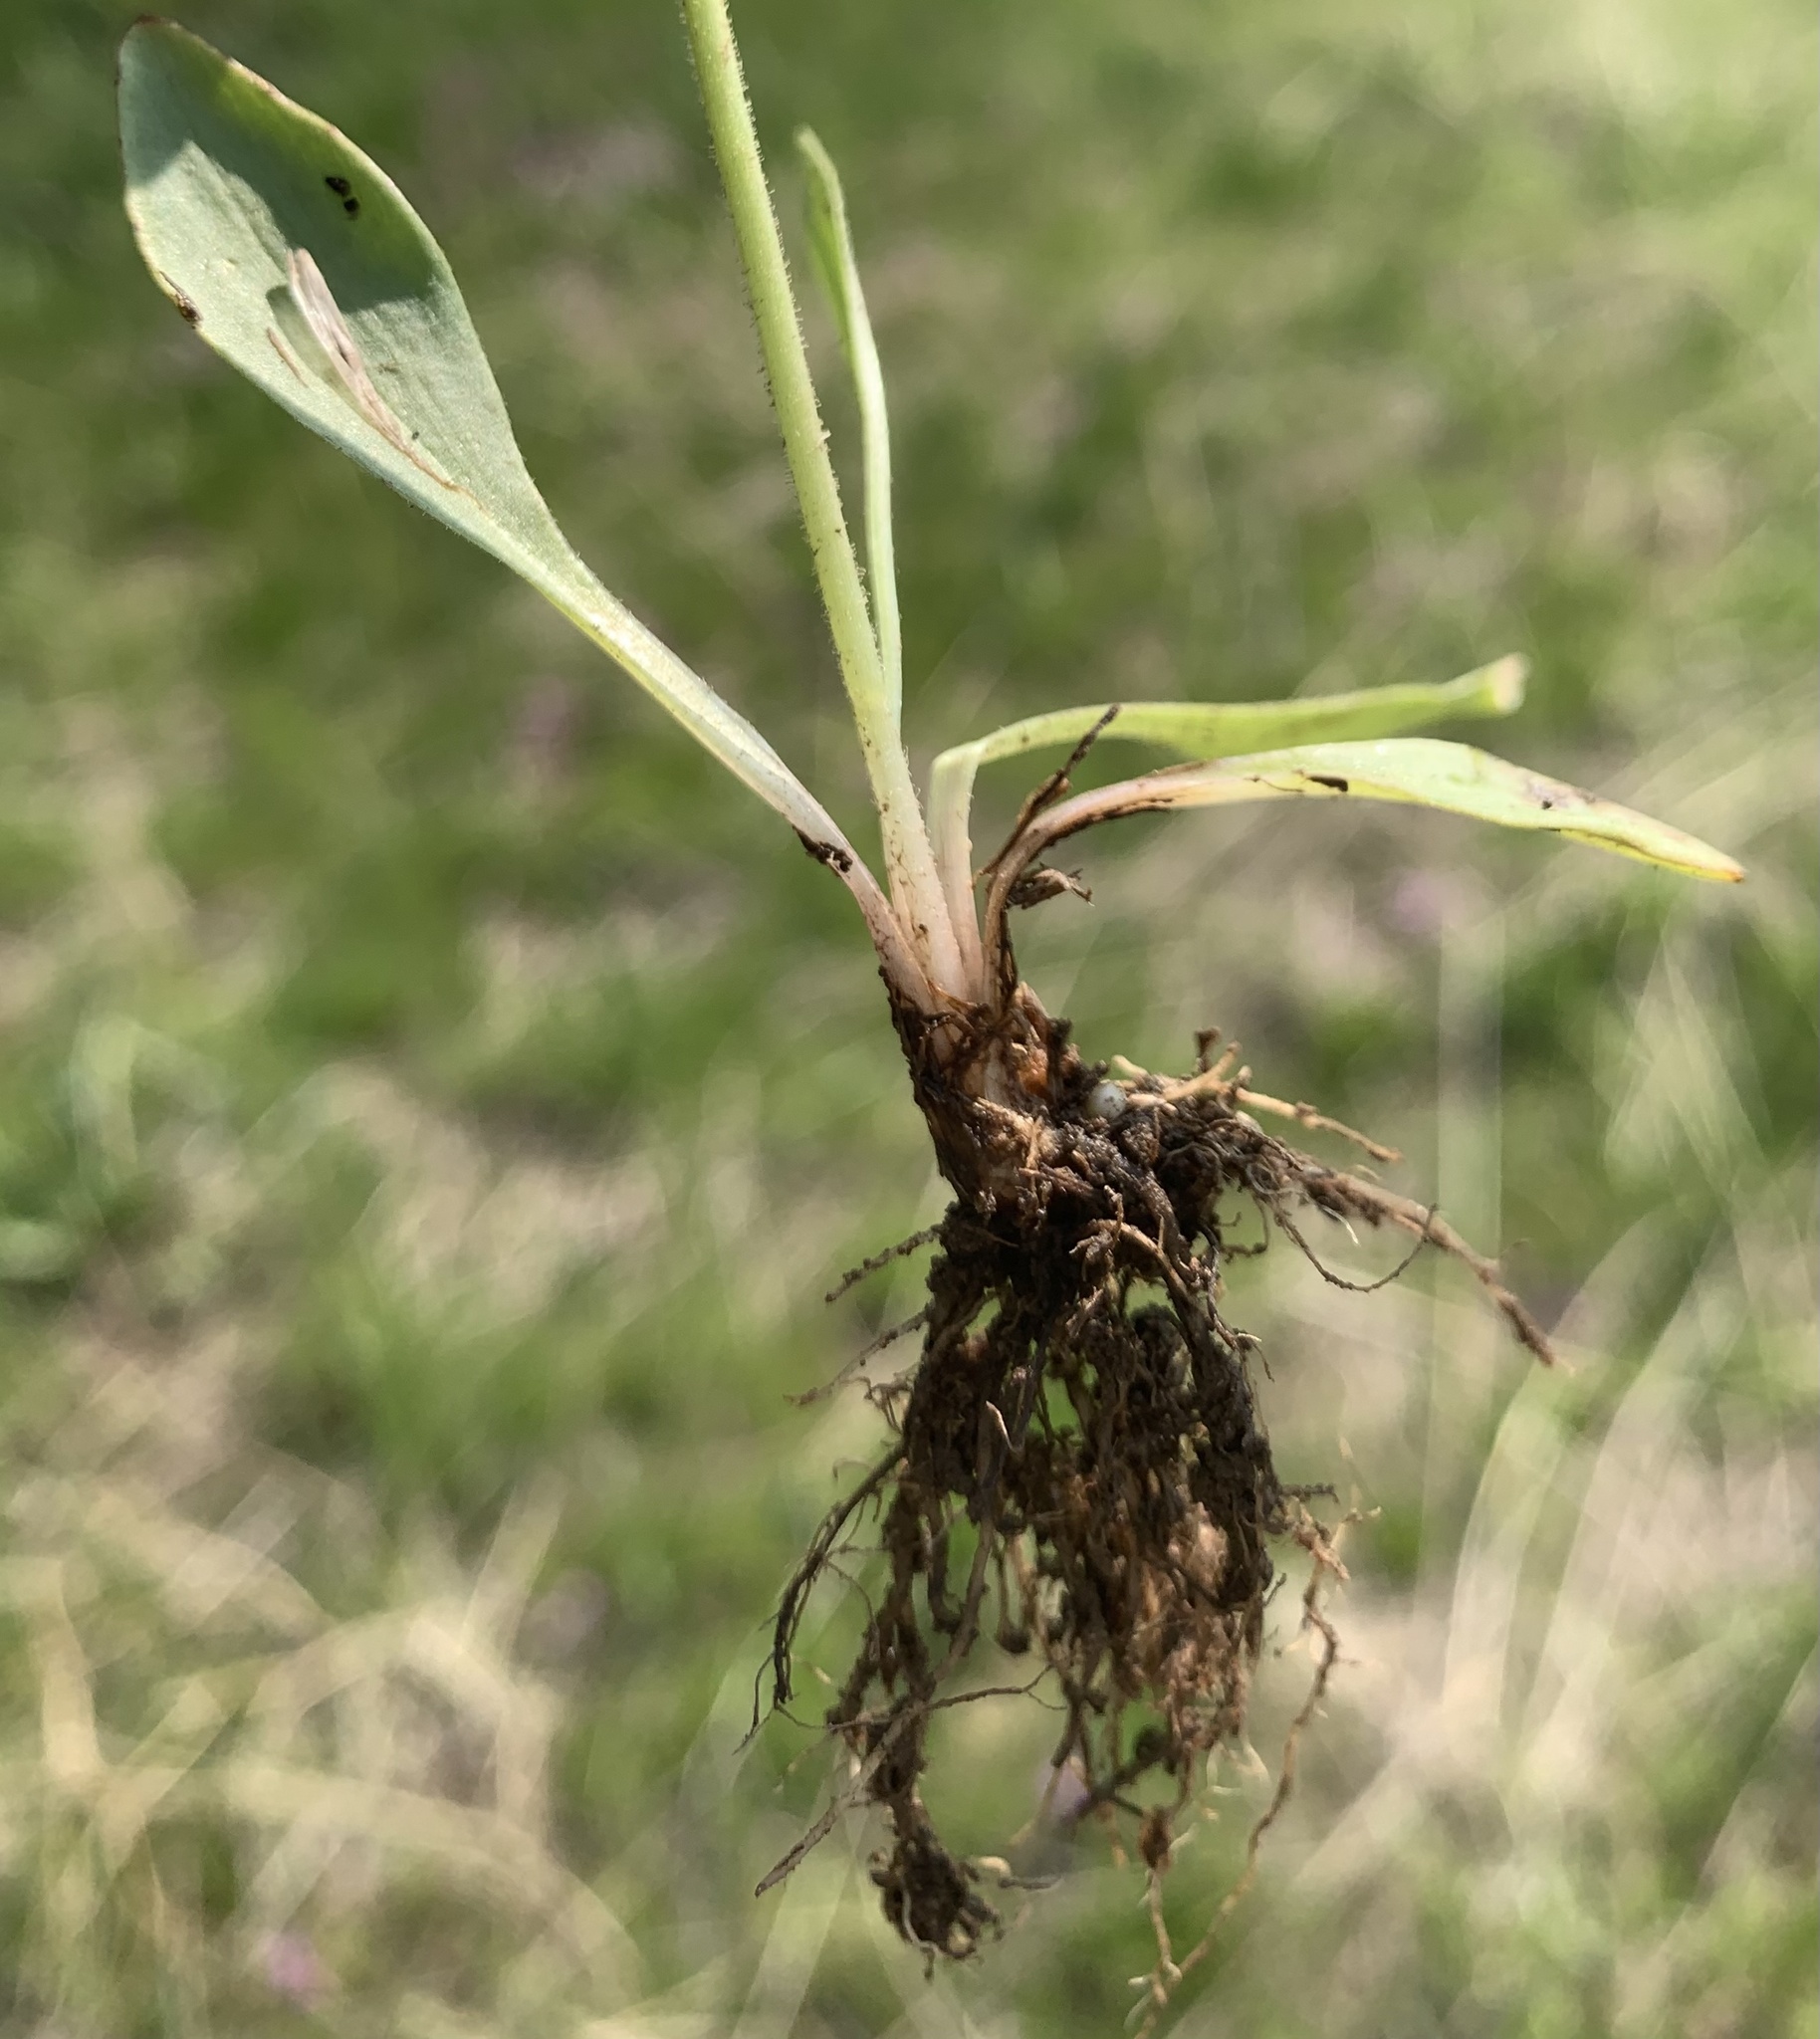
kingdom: Plantae
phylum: Tracheophyta
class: Magnoliopsida
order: Saxifragales
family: Saxifragaceae
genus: Micranthes
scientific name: Micranthes oregana
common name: Bog saxifrage
